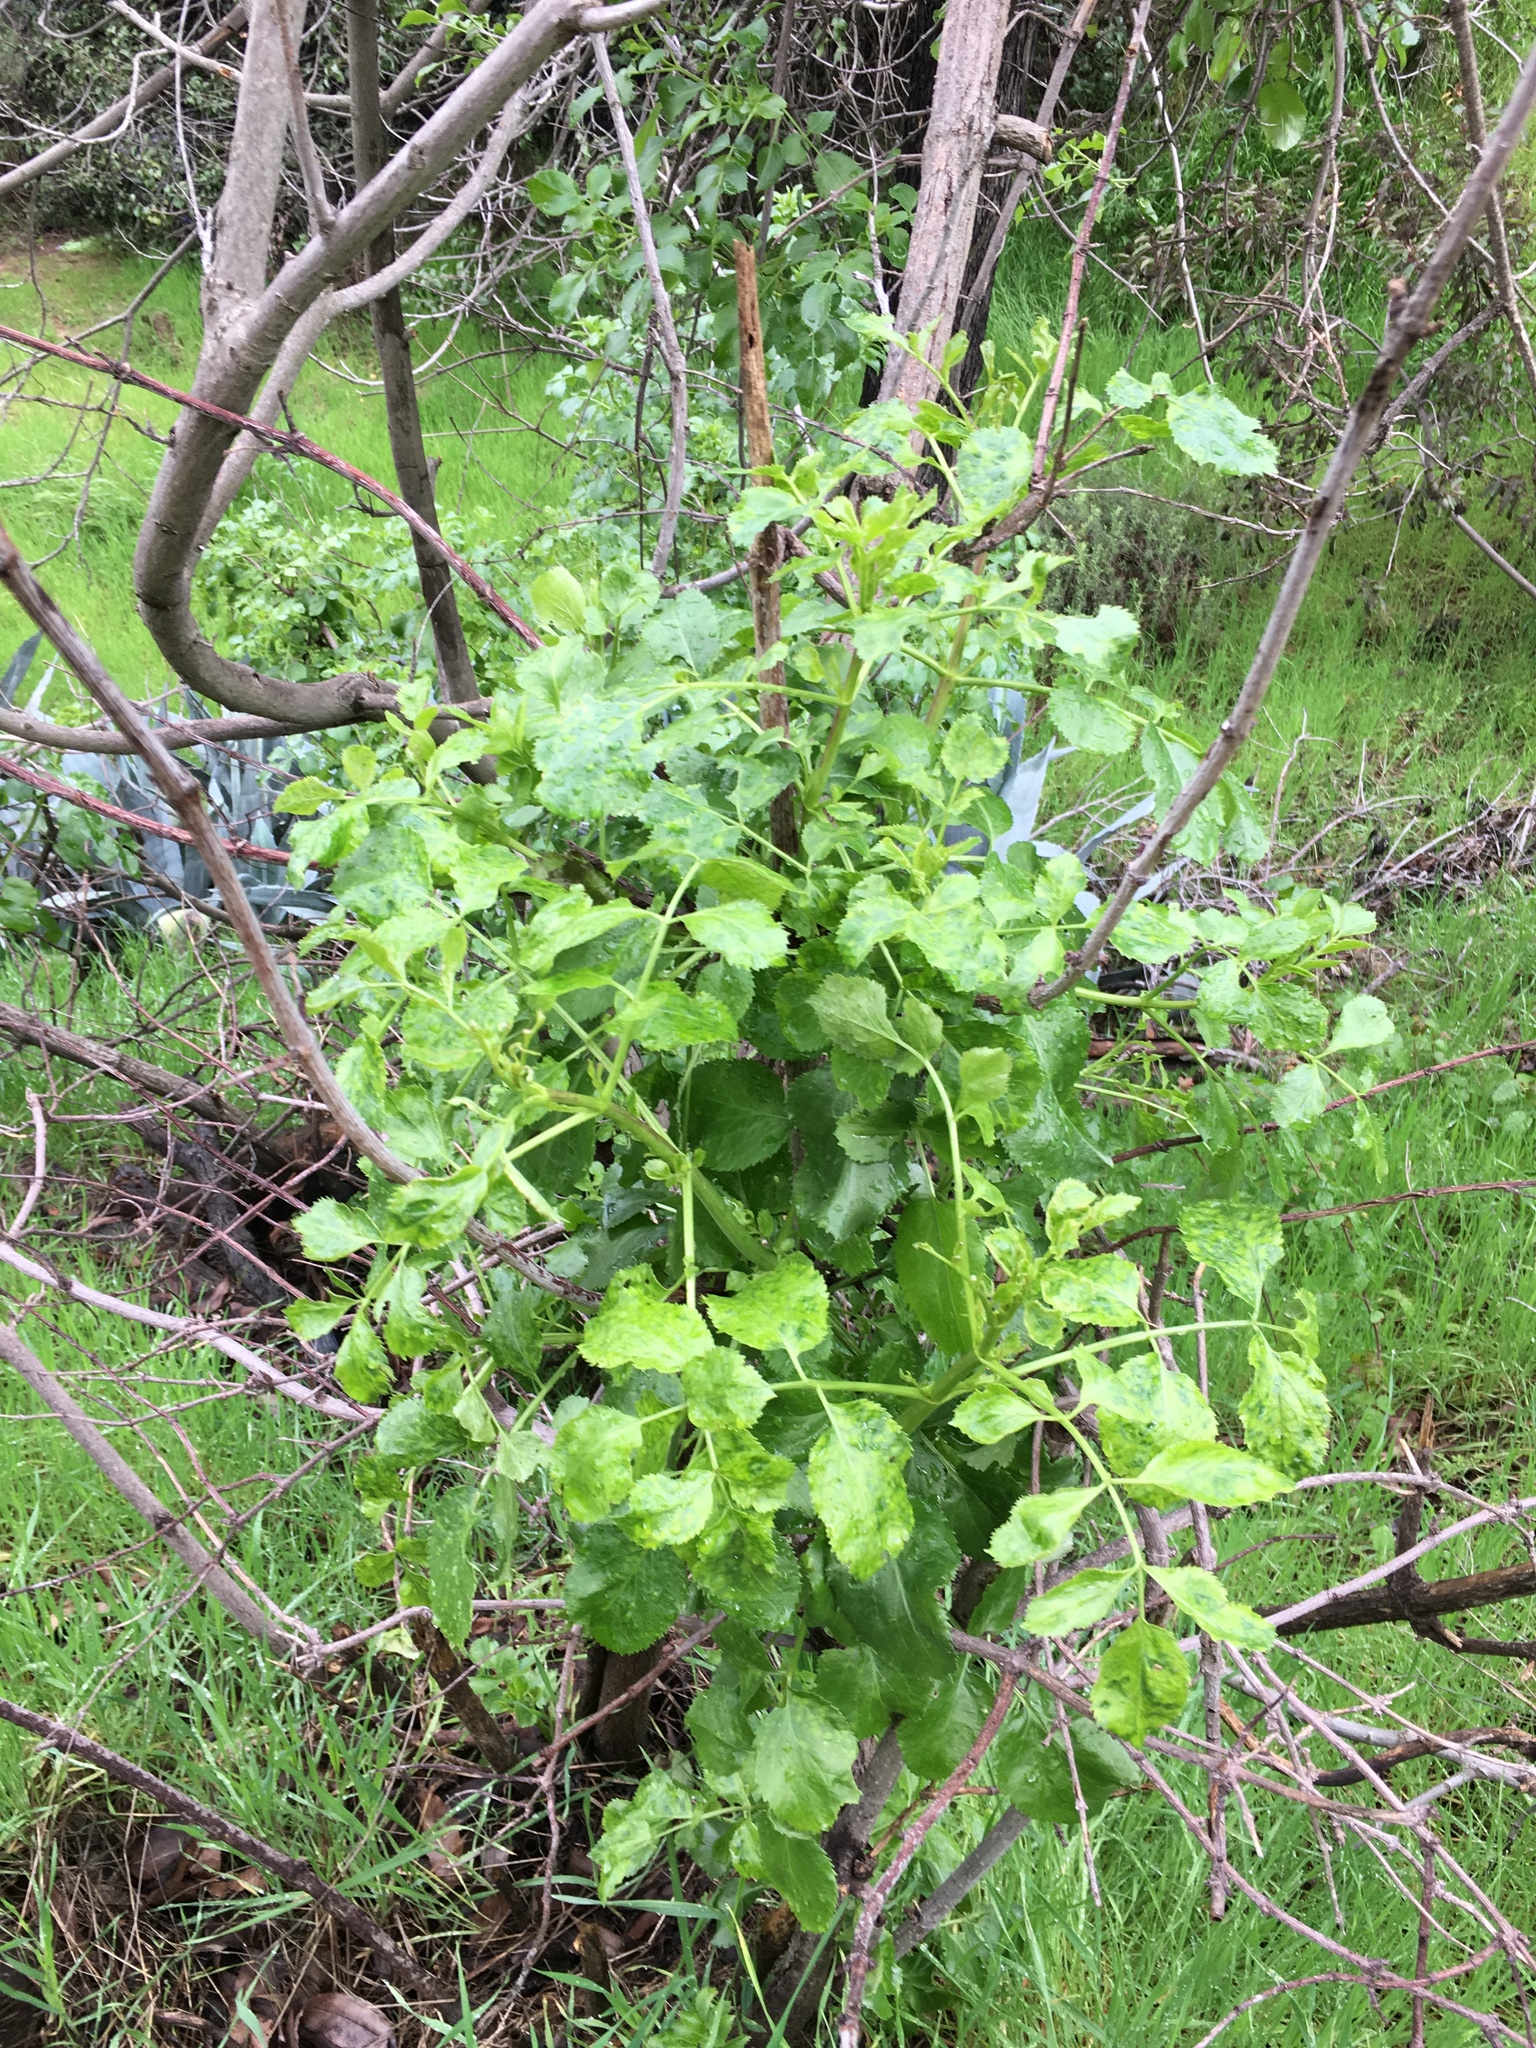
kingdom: Plantae
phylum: Tracheophyta
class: Magnoliopsida
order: Dipsacales
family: Viburnaceae
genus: Sambucus
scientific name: Sambucus cerulea
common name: Blue elder
